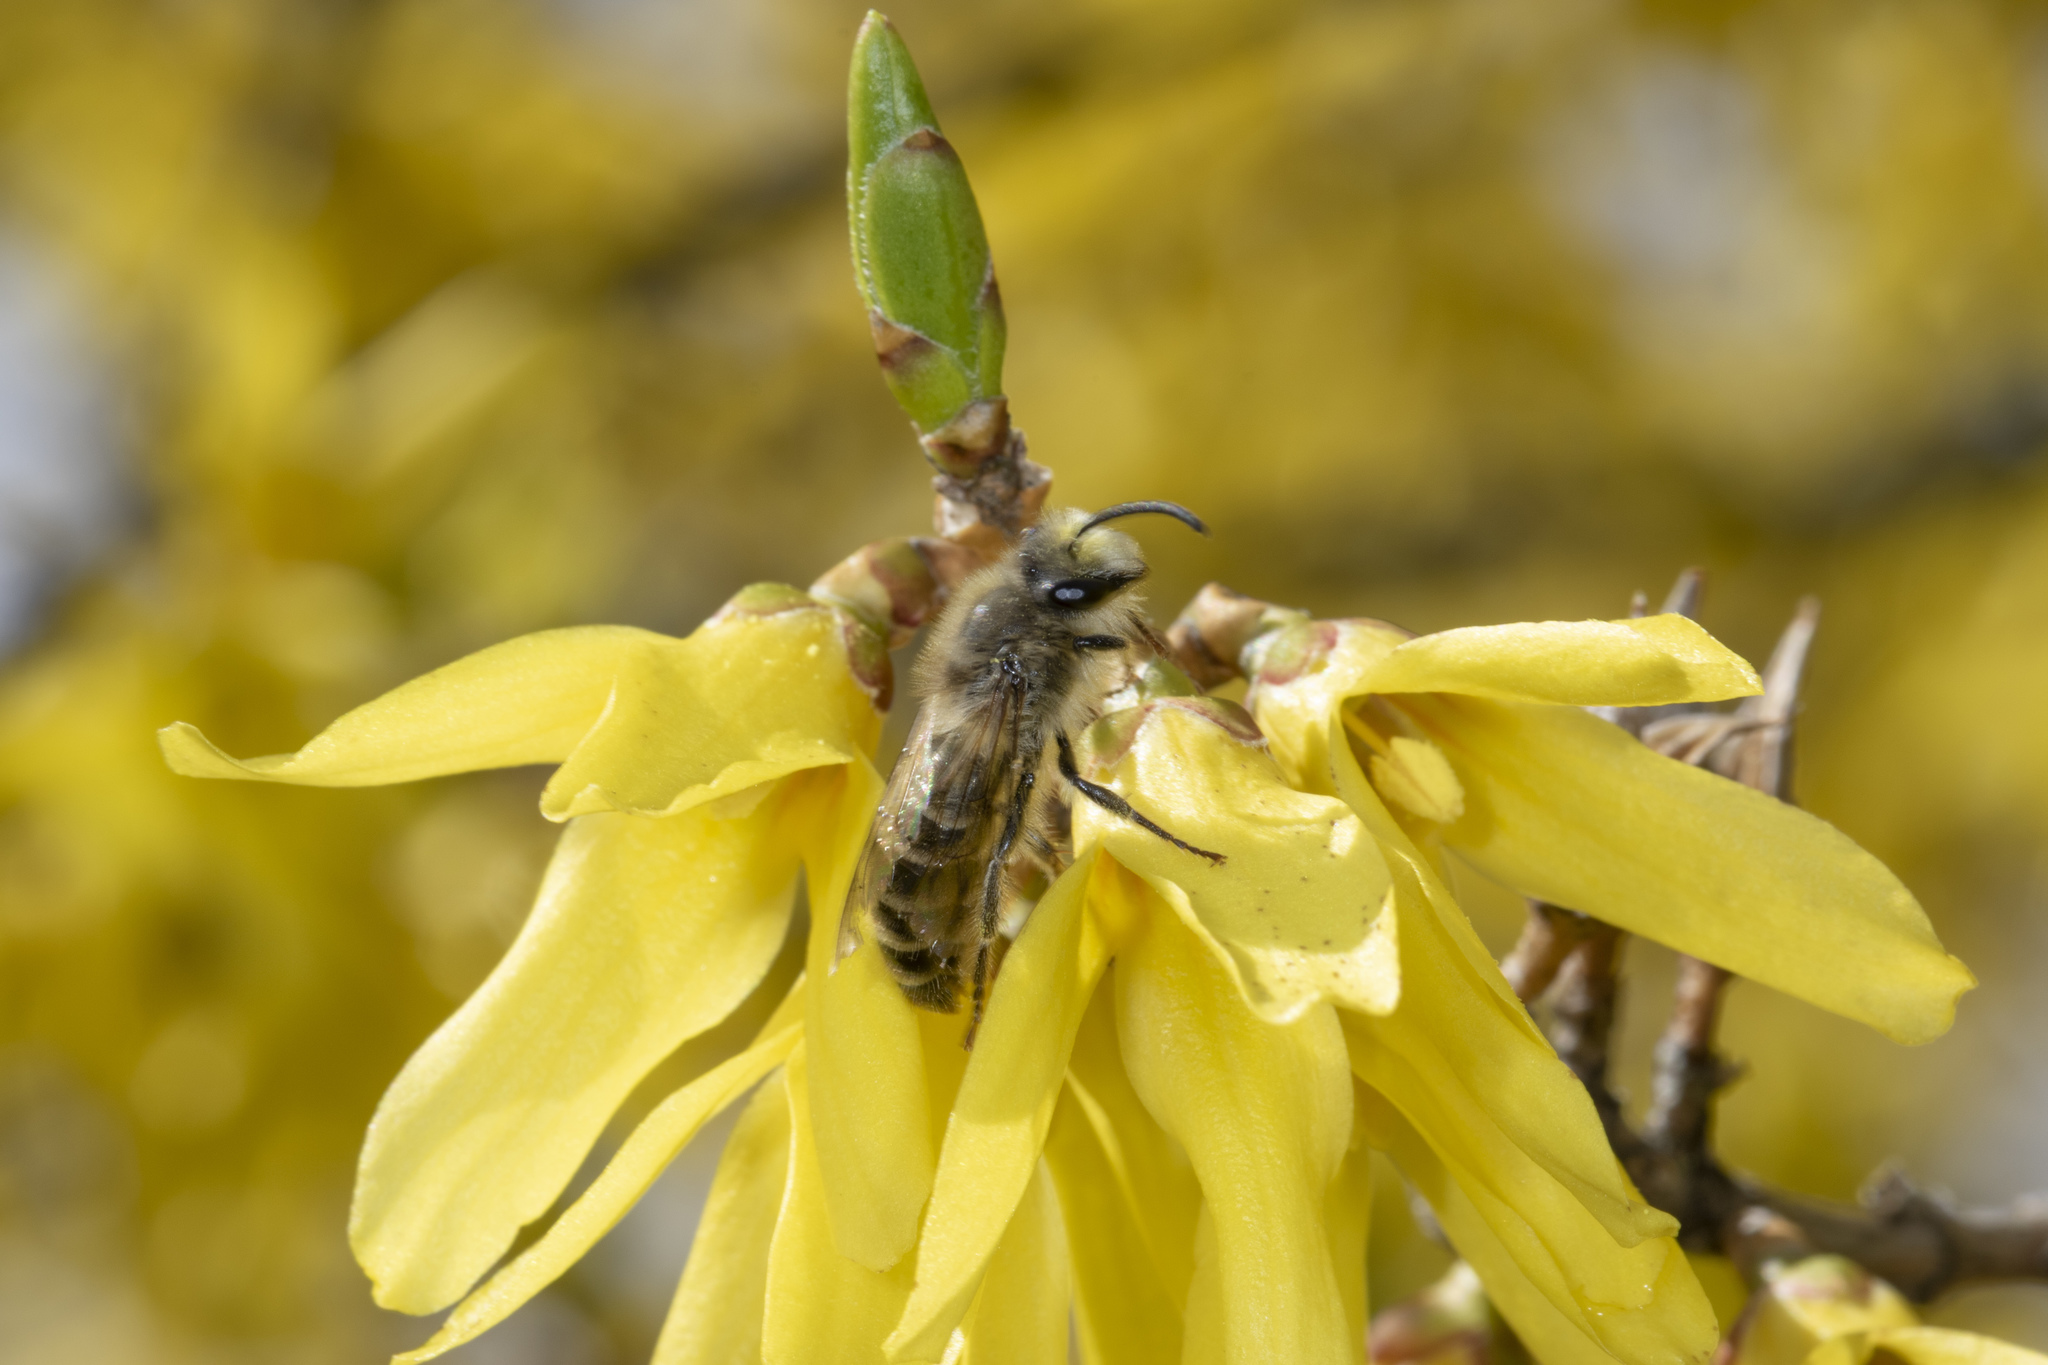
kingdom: Animalia
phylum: Arthropoda
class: Insecta
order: Hymenoptera
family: Colletidae
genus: Colletes
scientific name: Colletes inaequalis
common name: Unequal cellophane bee
